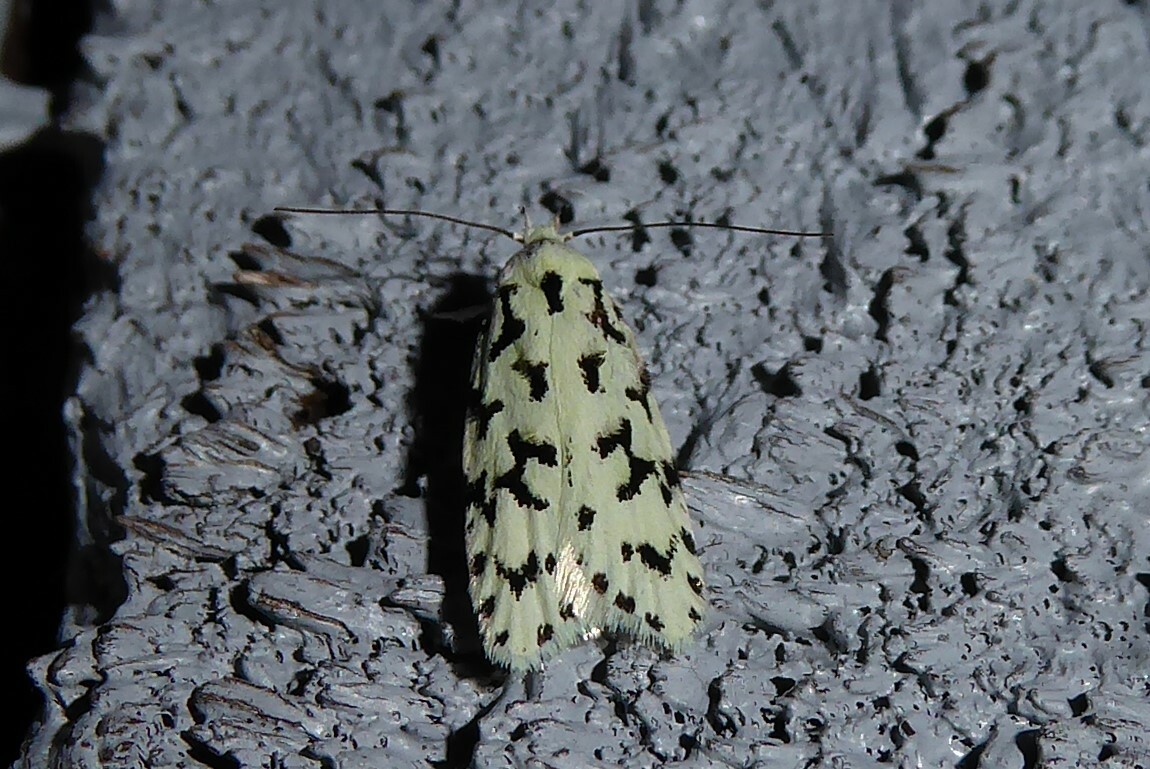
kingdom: Animalia
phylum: Arthropoda
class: Insecta
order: Lepidoptera
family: Oecophoridae
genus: Izatha
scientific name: Izatha huttoni
